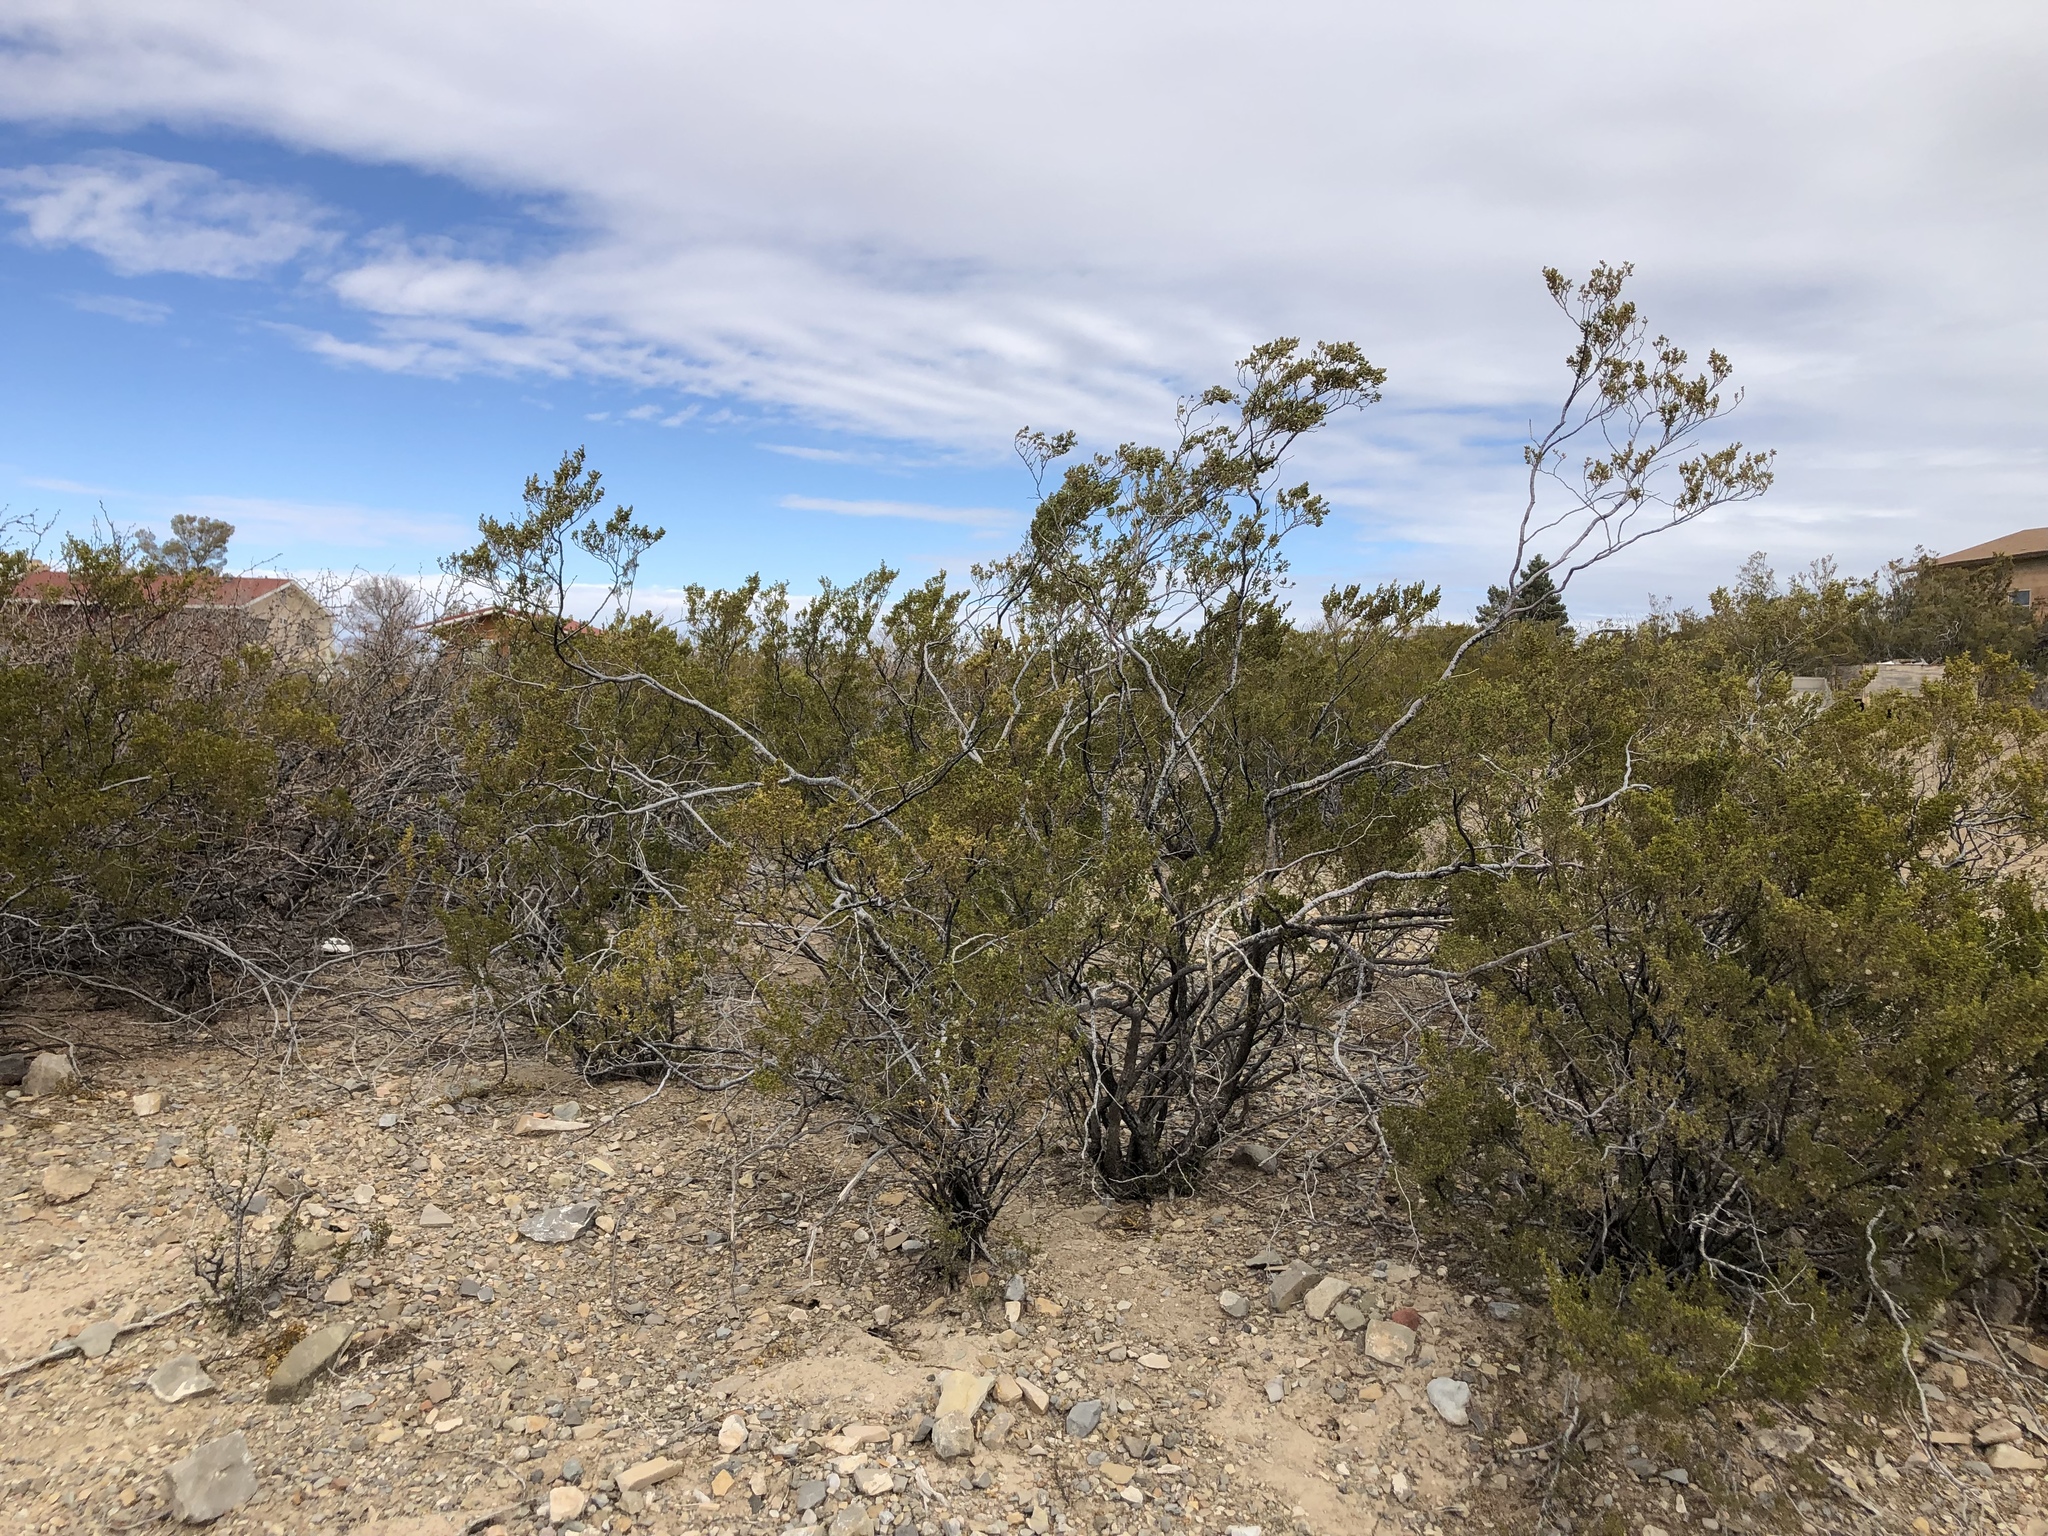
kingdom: Plantae
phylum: Tracheophyta
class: Magnoliopsida
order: Zygophyllales
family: Zygophyllaceae
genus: Larrea
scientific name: Larrea tridentata
